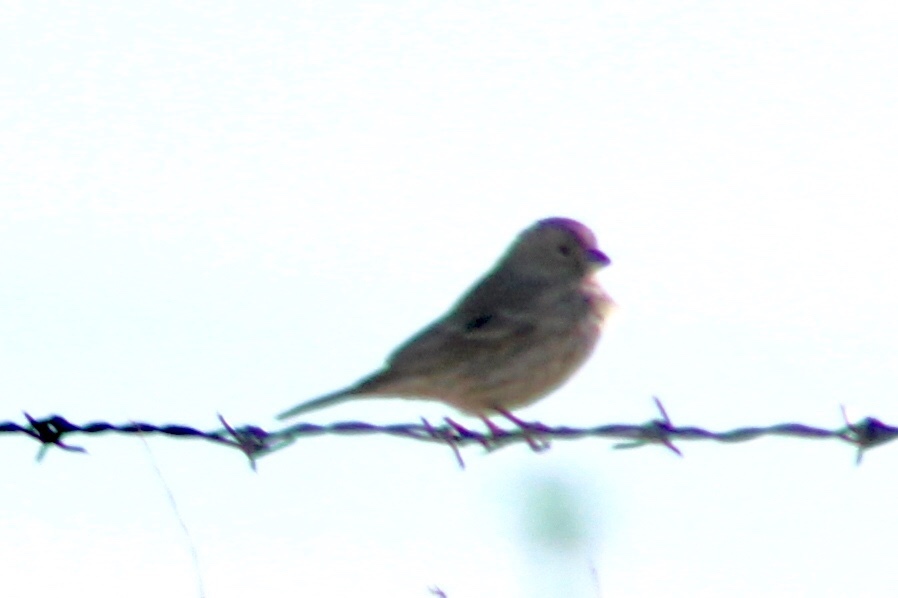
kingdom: Animalia
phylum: Chordata
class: Aves
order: Passeriformes
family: Fringillidae
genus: Haemorhous
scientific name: Haemorhous mexicanus
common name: House finch
